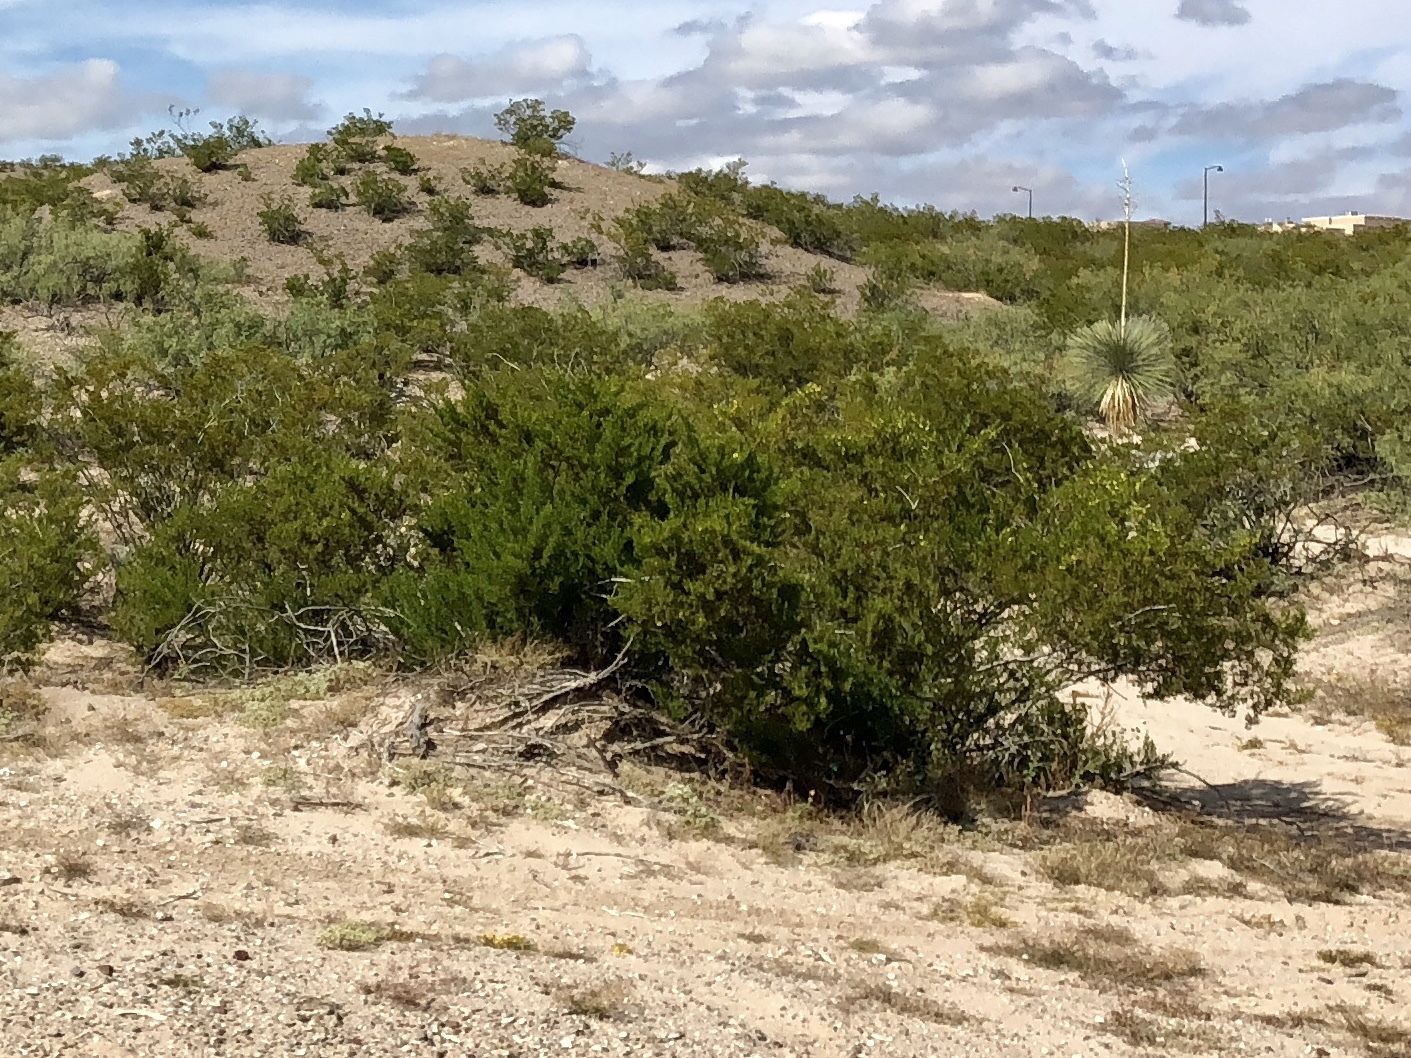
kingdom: Plantae
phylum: Tracheophyta
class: Magnoliopsida
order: Zygophyllales
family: Zygophyllaceae
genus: Larrea
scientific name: Larrea tridentata
